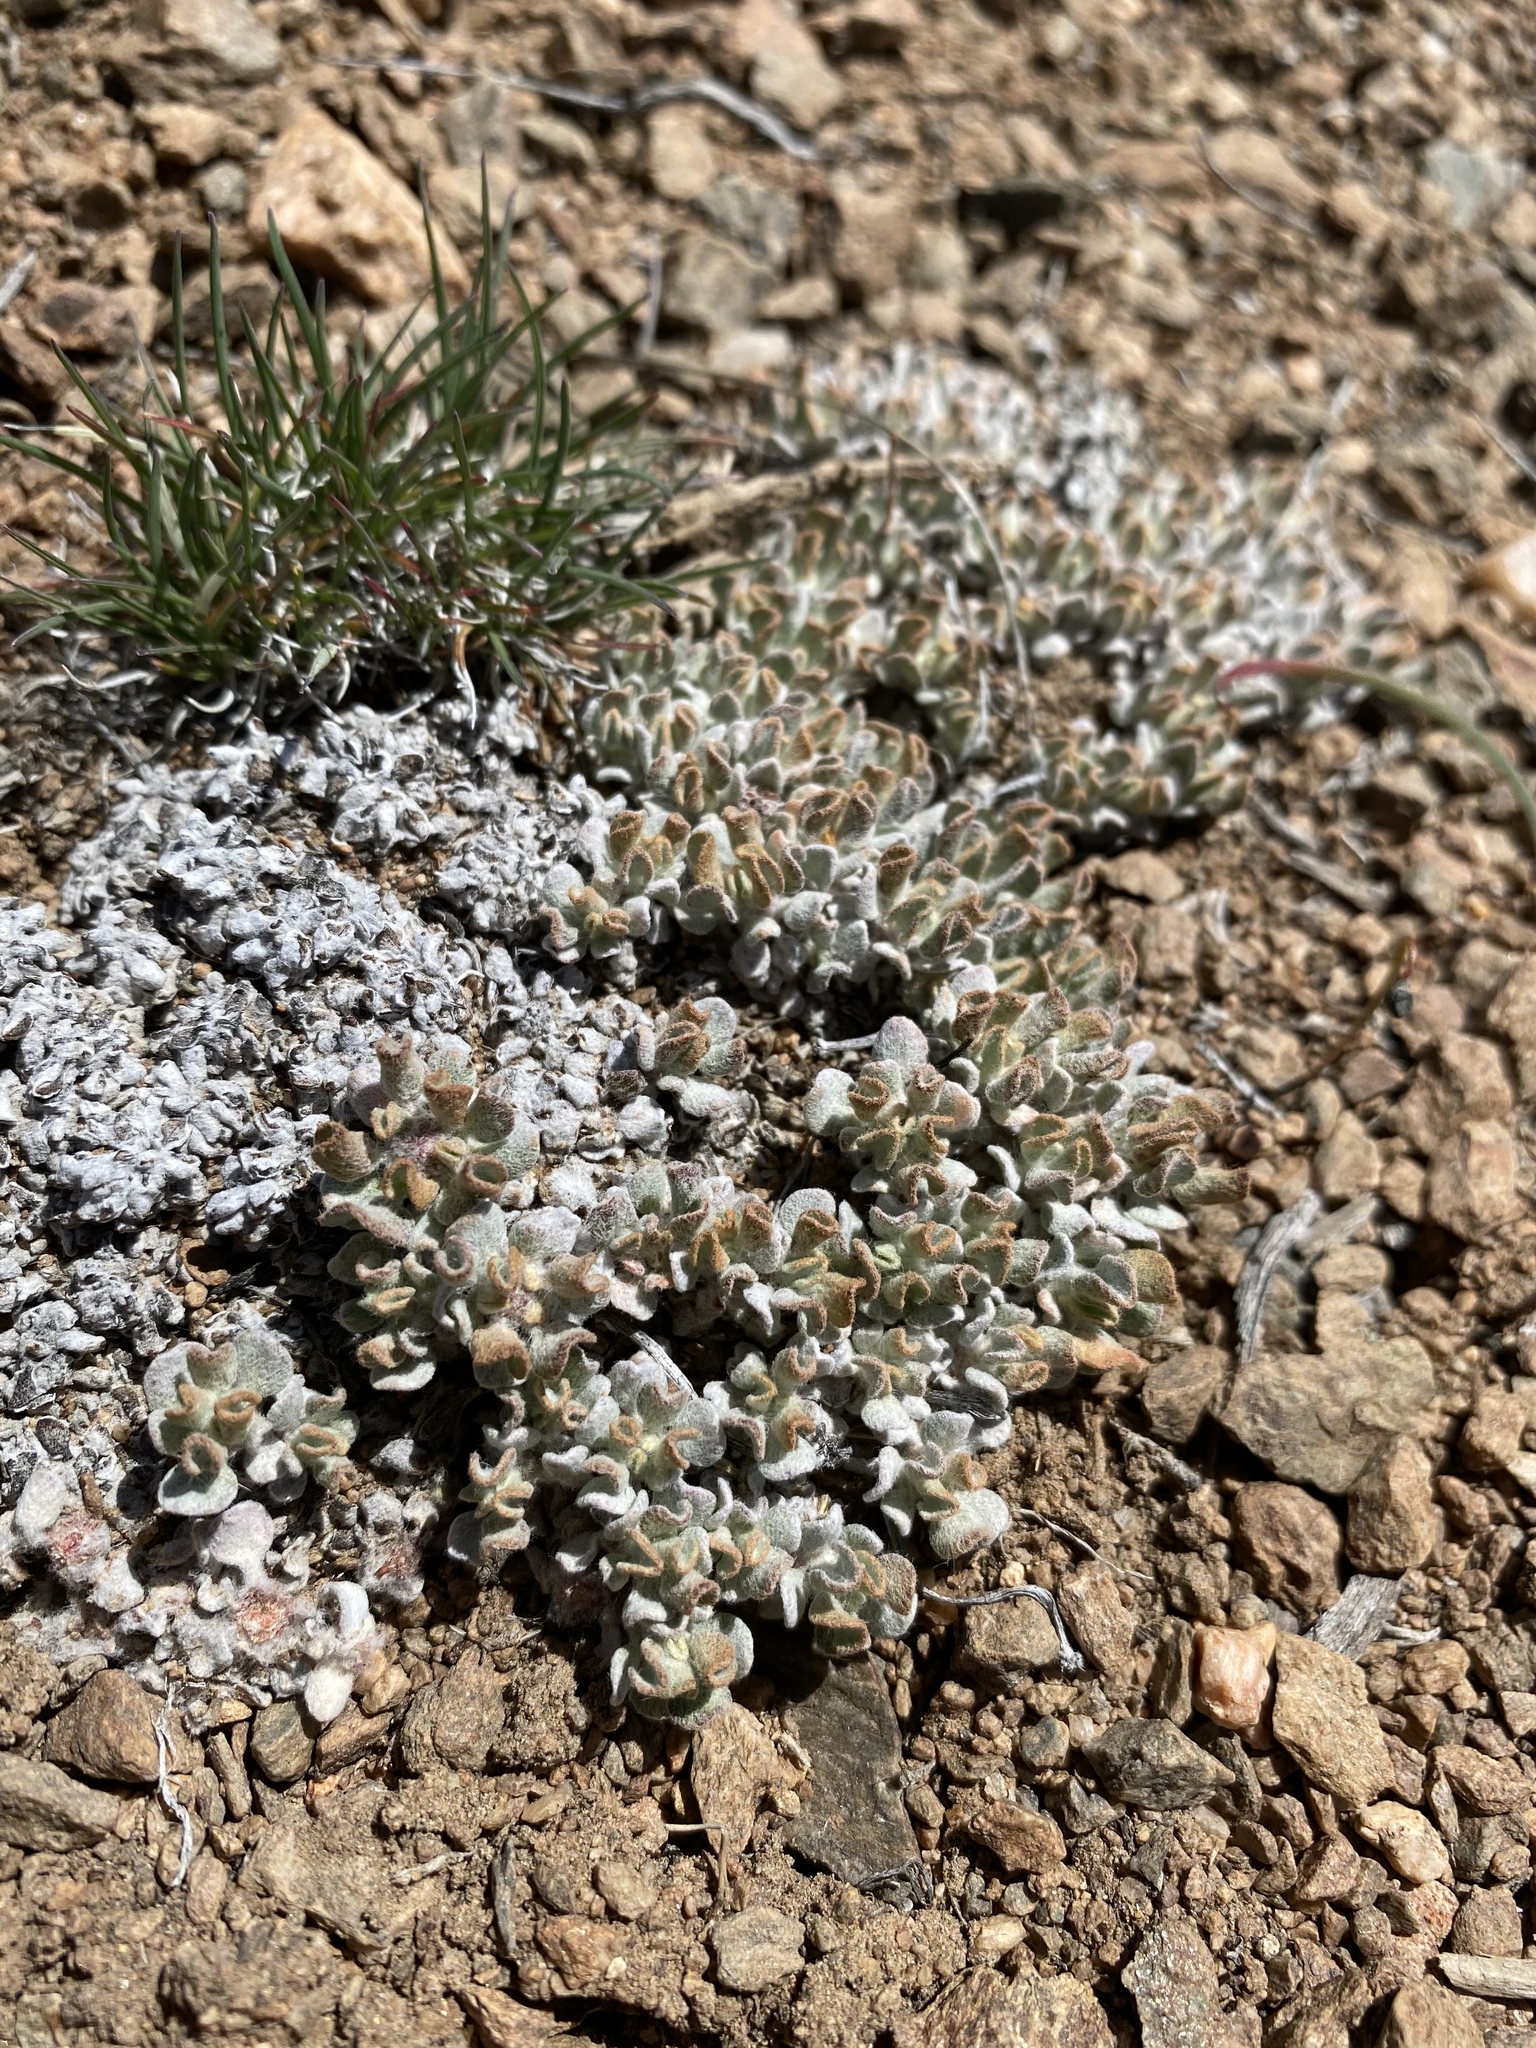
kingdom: Plantae
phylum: Tracheophyta
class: Magnoliopsida
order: Caryophyllales
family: Polygonaceae
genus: Eriogonum
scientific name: Eriogonum ovalifolium
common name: Cushion buckwheat
